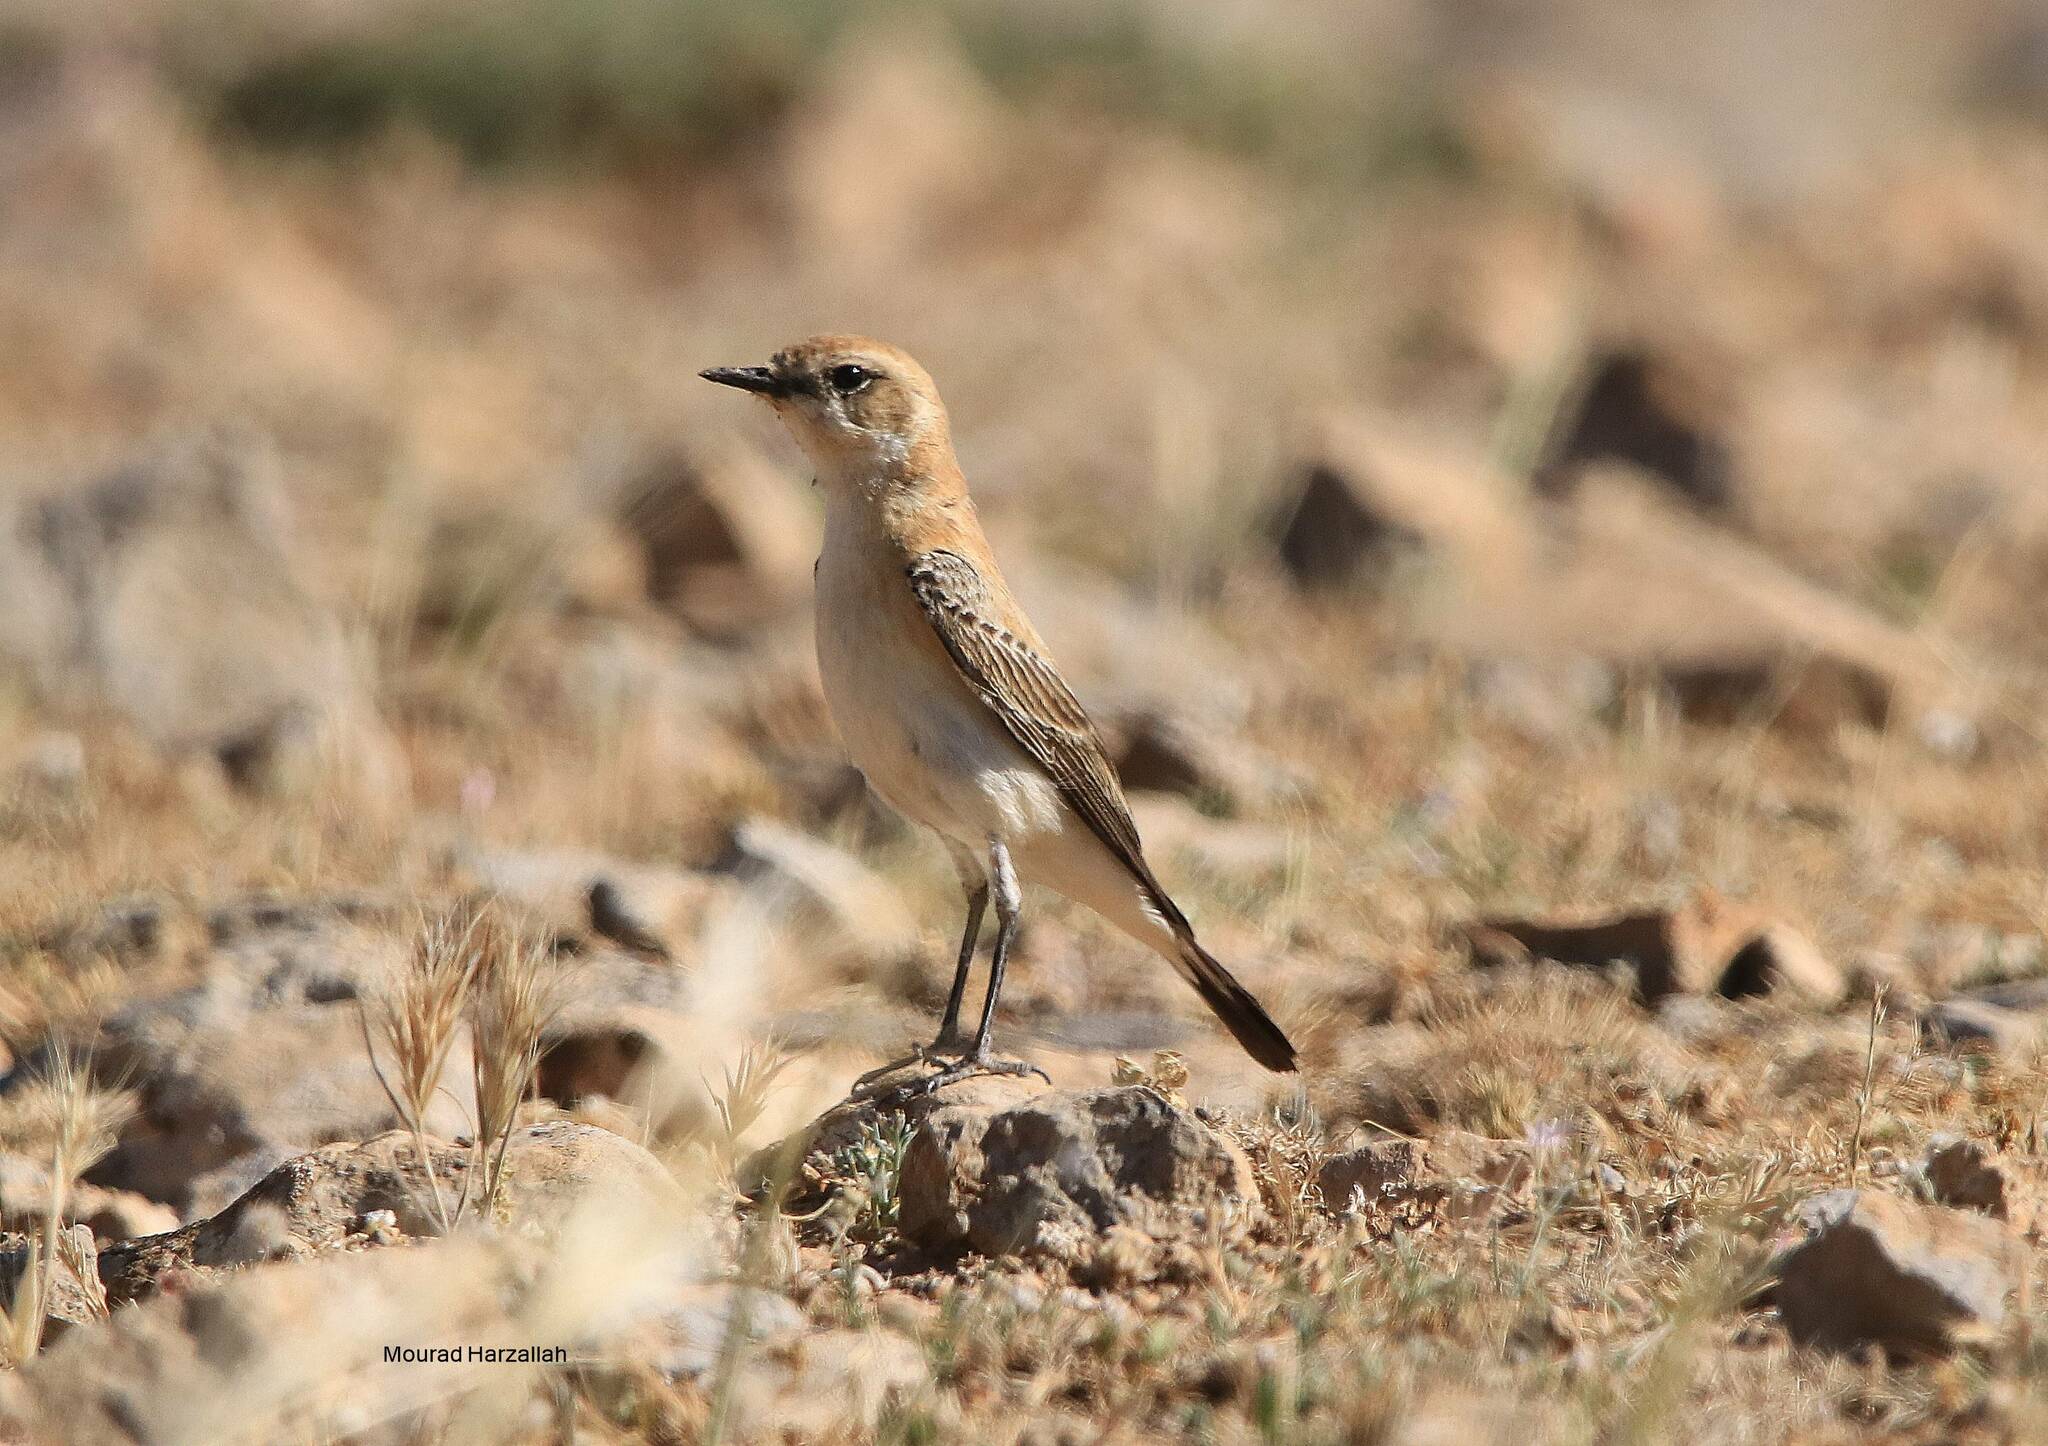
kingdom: Animalia
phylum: Chordata
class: Aves
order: Passeriformes
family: Muscicapidae
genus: Oenanthe
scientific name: Oenanthe hispanica
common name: Black-eared wheatear
